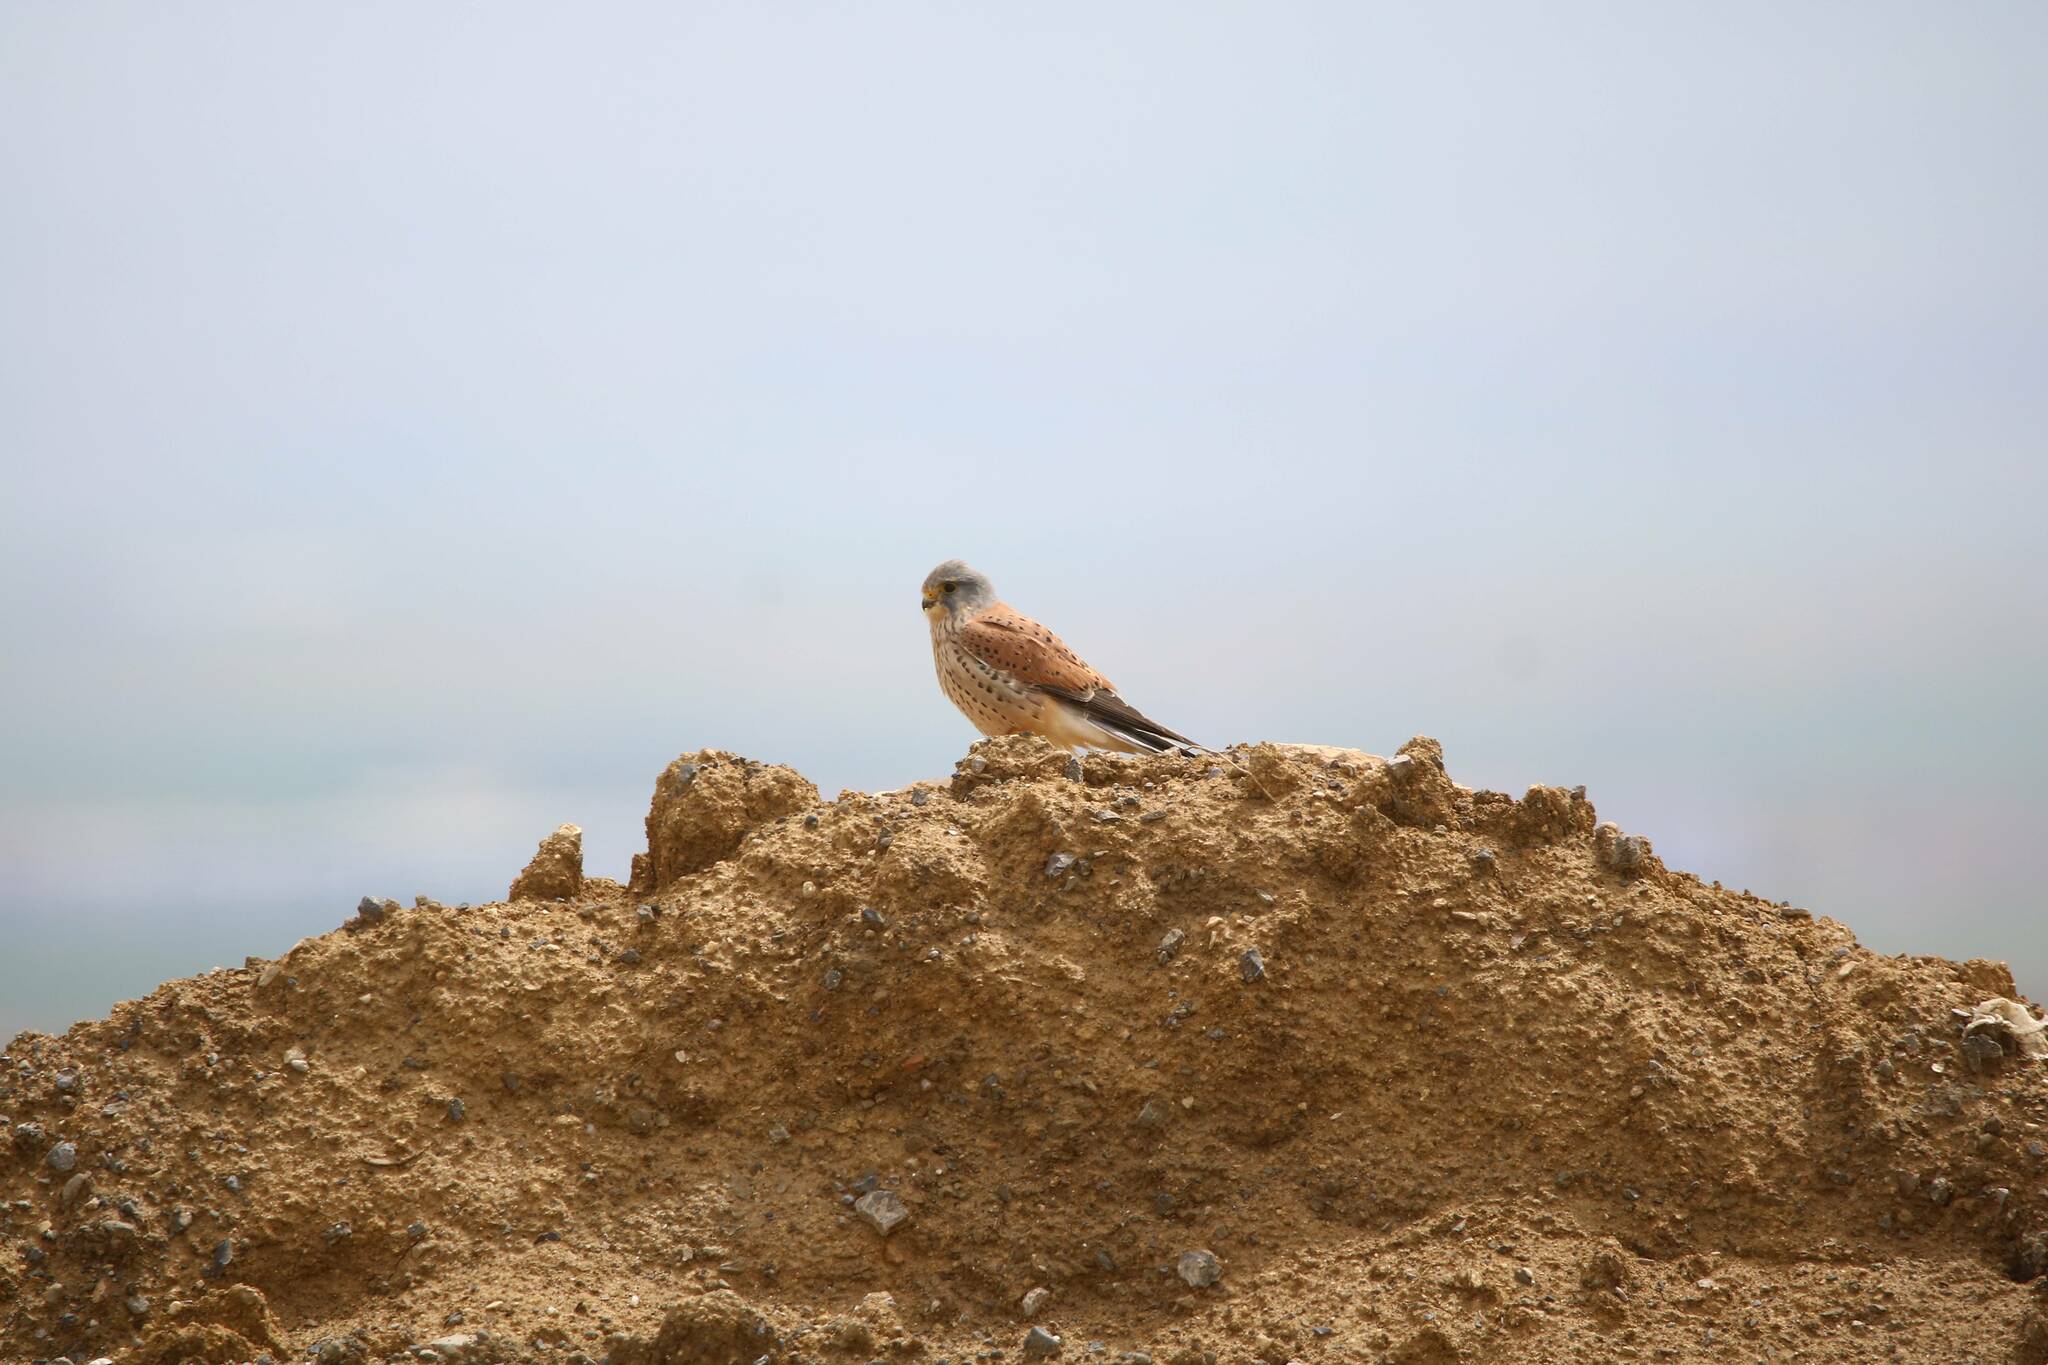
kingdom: Animalia
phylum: Chordata
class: Aves
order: Falconiformes
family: Falconidae
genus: Falco
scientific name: Falco tinnunculus
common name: Common kestrel
